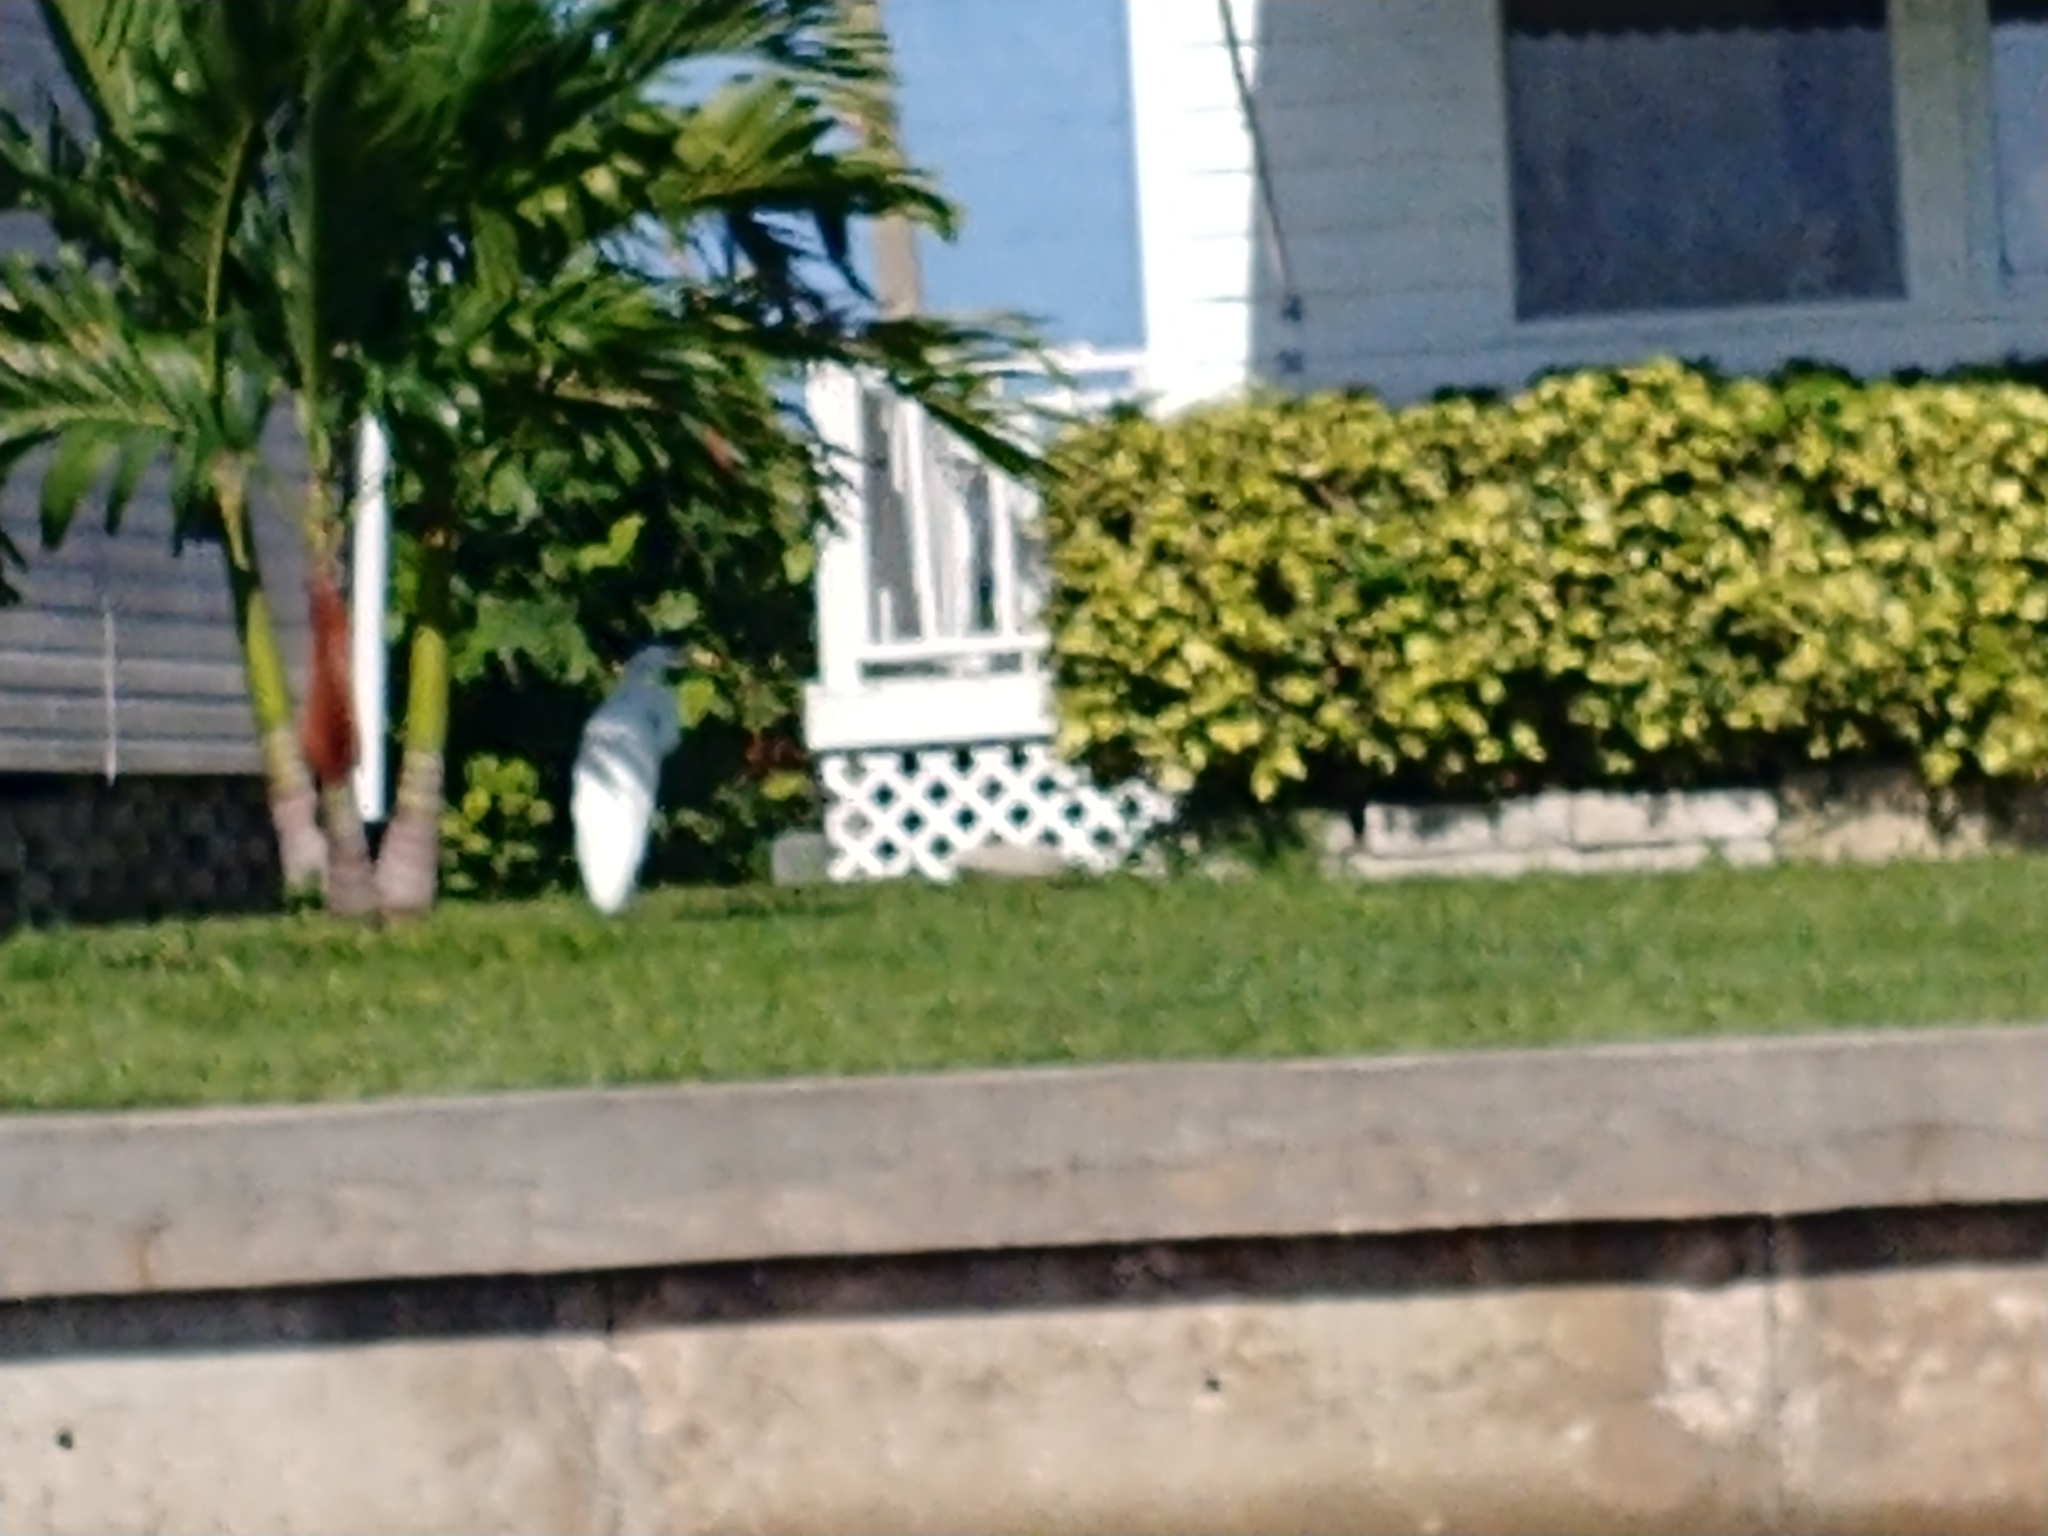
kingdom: Animalia
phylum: Chordata
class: Aves
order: Pelecaniformes
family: Ardeidae
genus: Ardea
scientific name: Ardea alba
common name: Great egret
